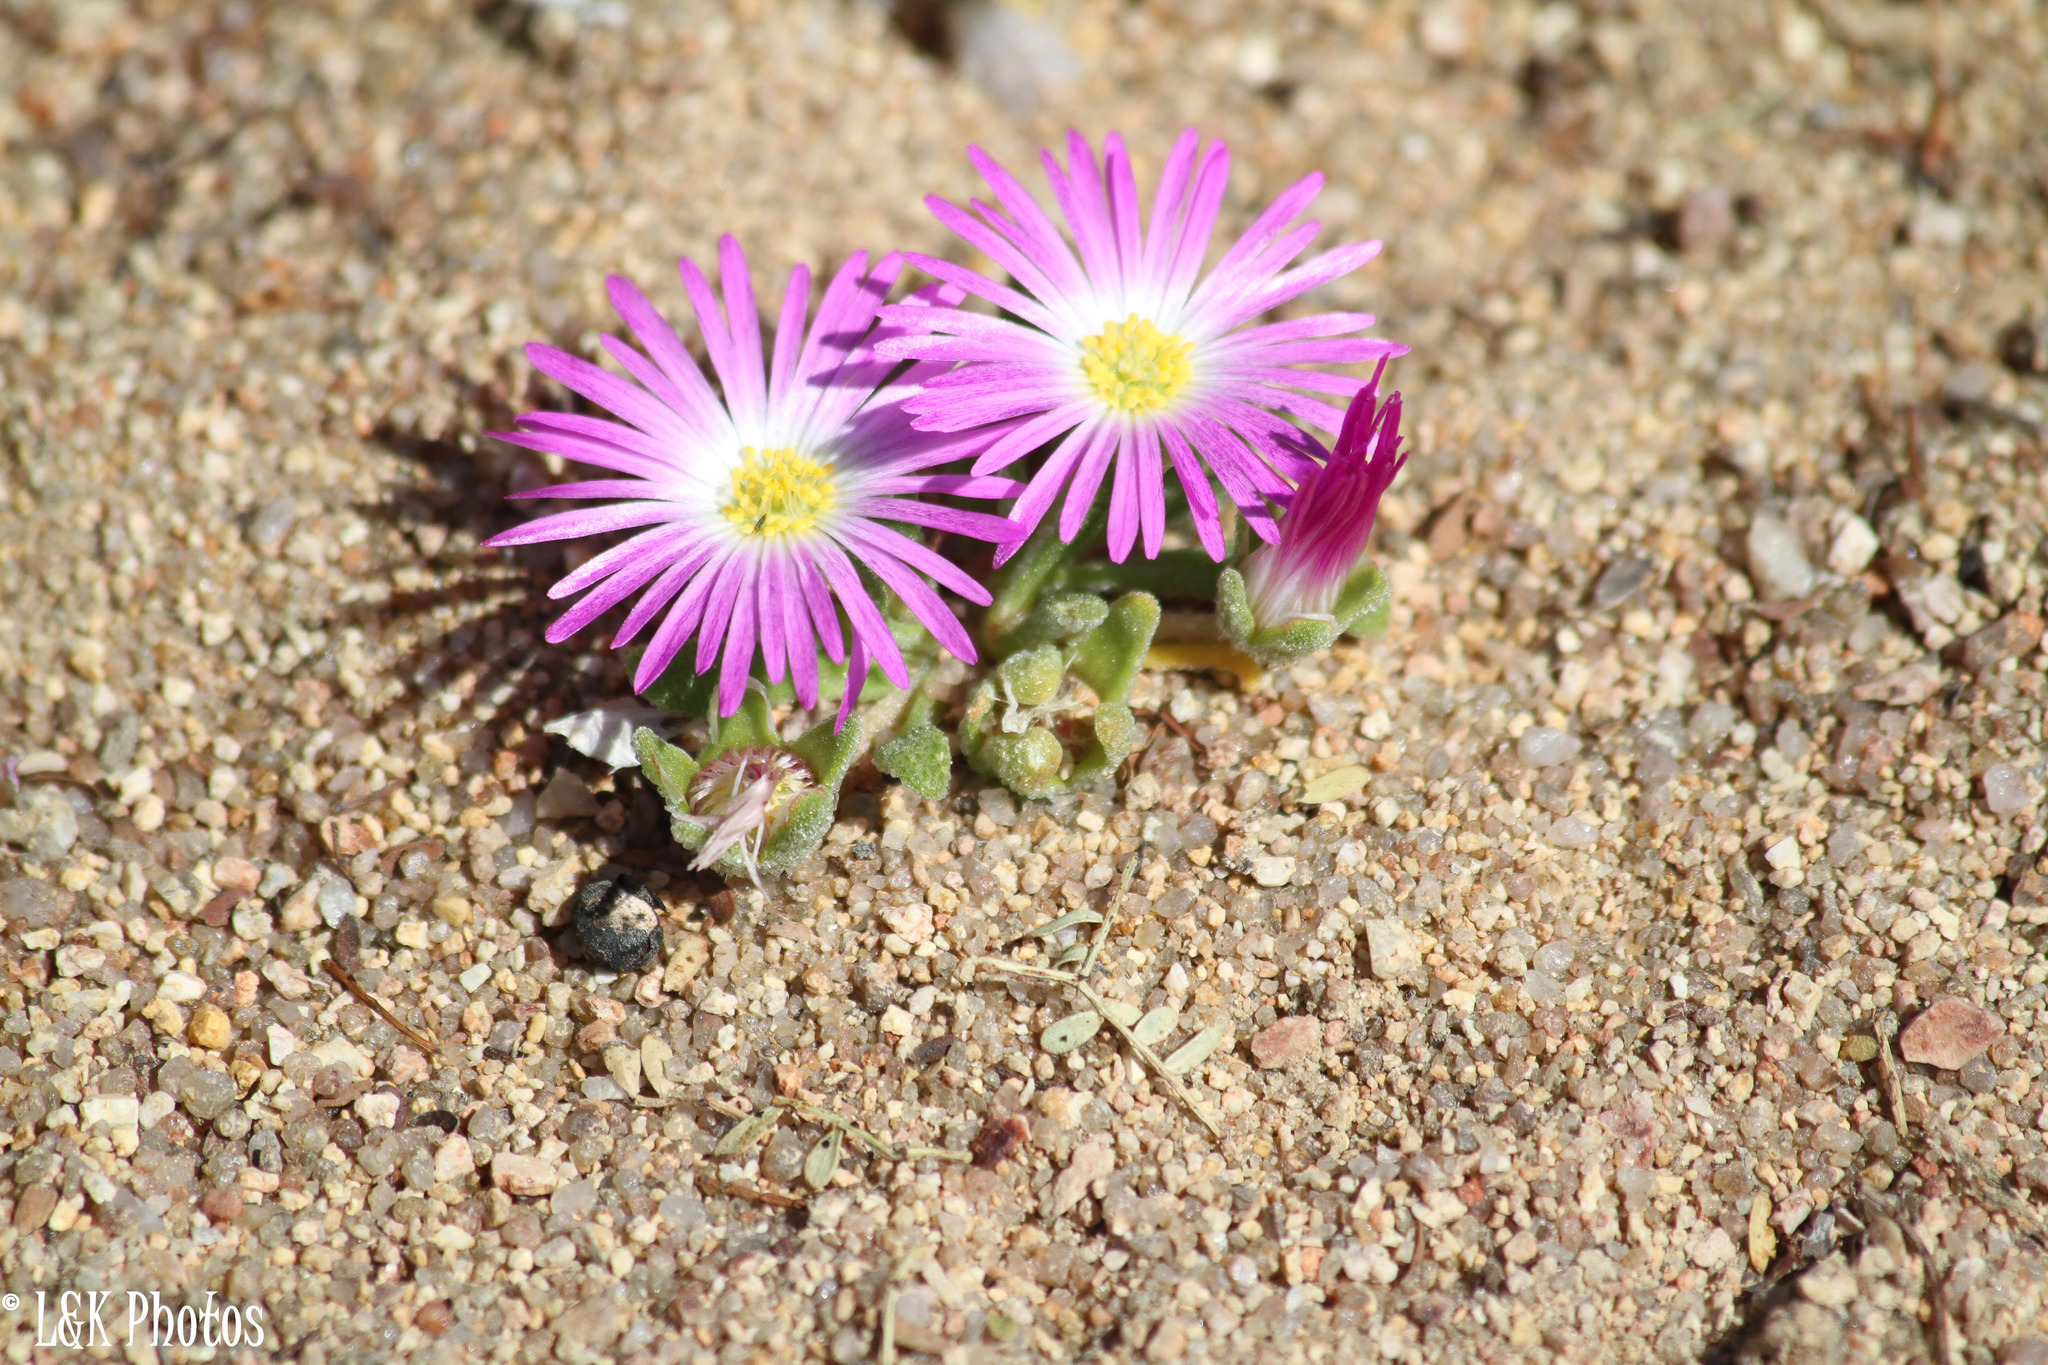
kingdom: Plantae
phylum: Tracheophyta
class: Magnoliopsida
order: Caryophyllales
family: Aizoaceae
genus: Cleretum
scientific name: Cleretum hestermalense
